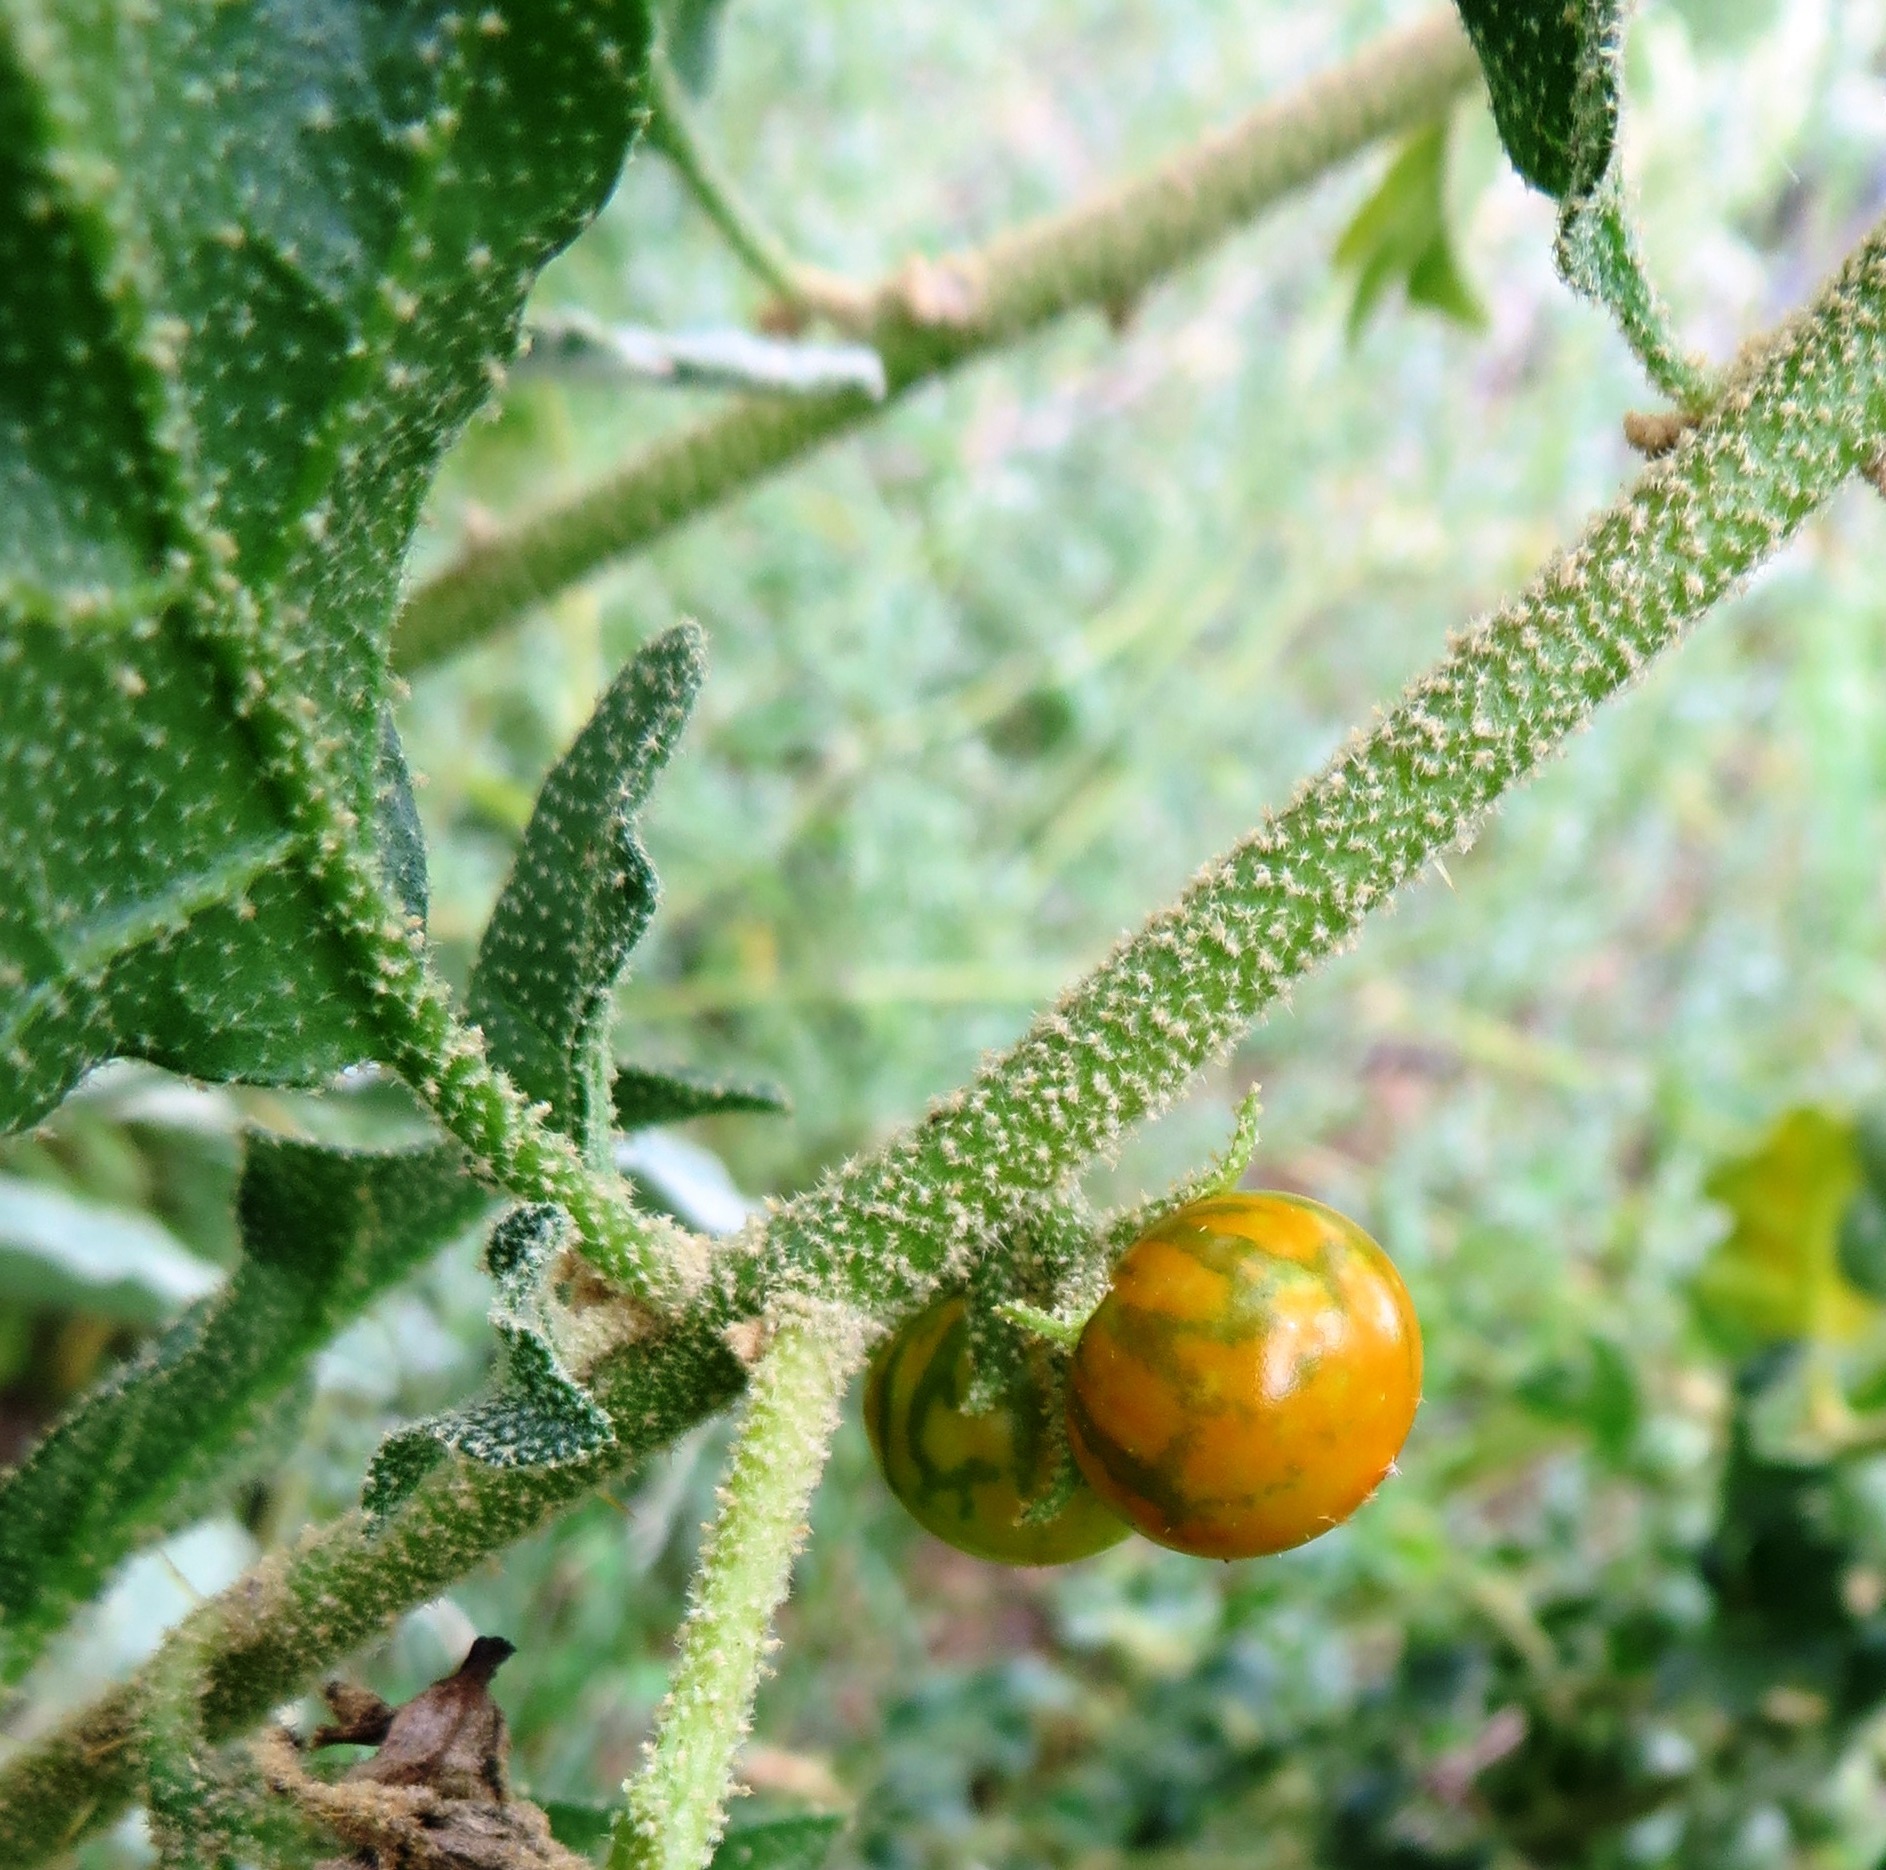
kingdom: Plantae
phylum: Tracheophyta
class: Magnoliopsida
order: Solanales
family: Solanaceae
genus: Solanum
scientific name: Solanum humile
